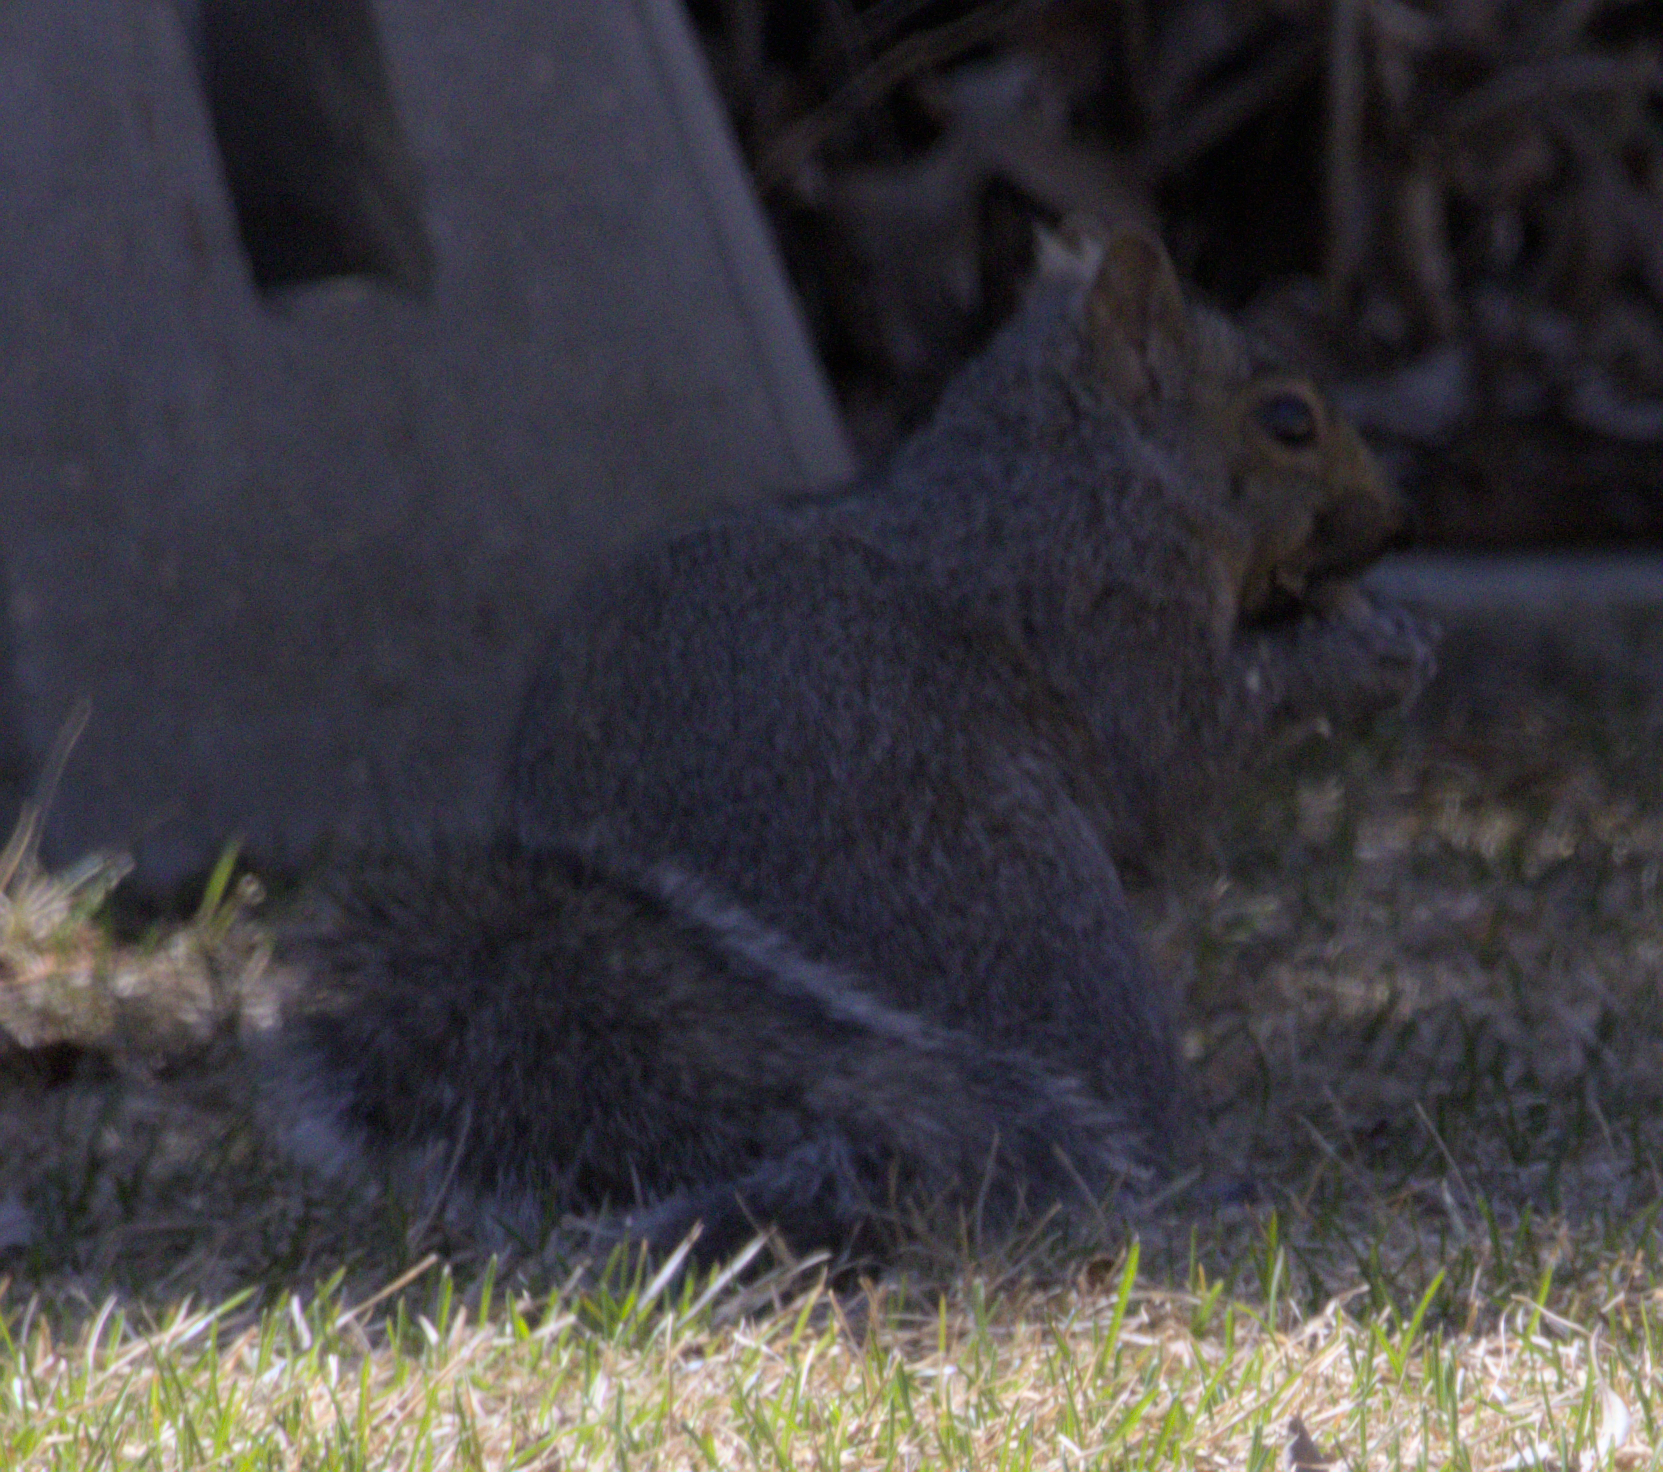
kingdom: Animalia
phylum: Chordata
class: Mammalia
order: Rodentia
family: Sciuridae
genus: Sciurus
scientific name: Sciurus carolinensis
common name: Eastern gray squirrel
